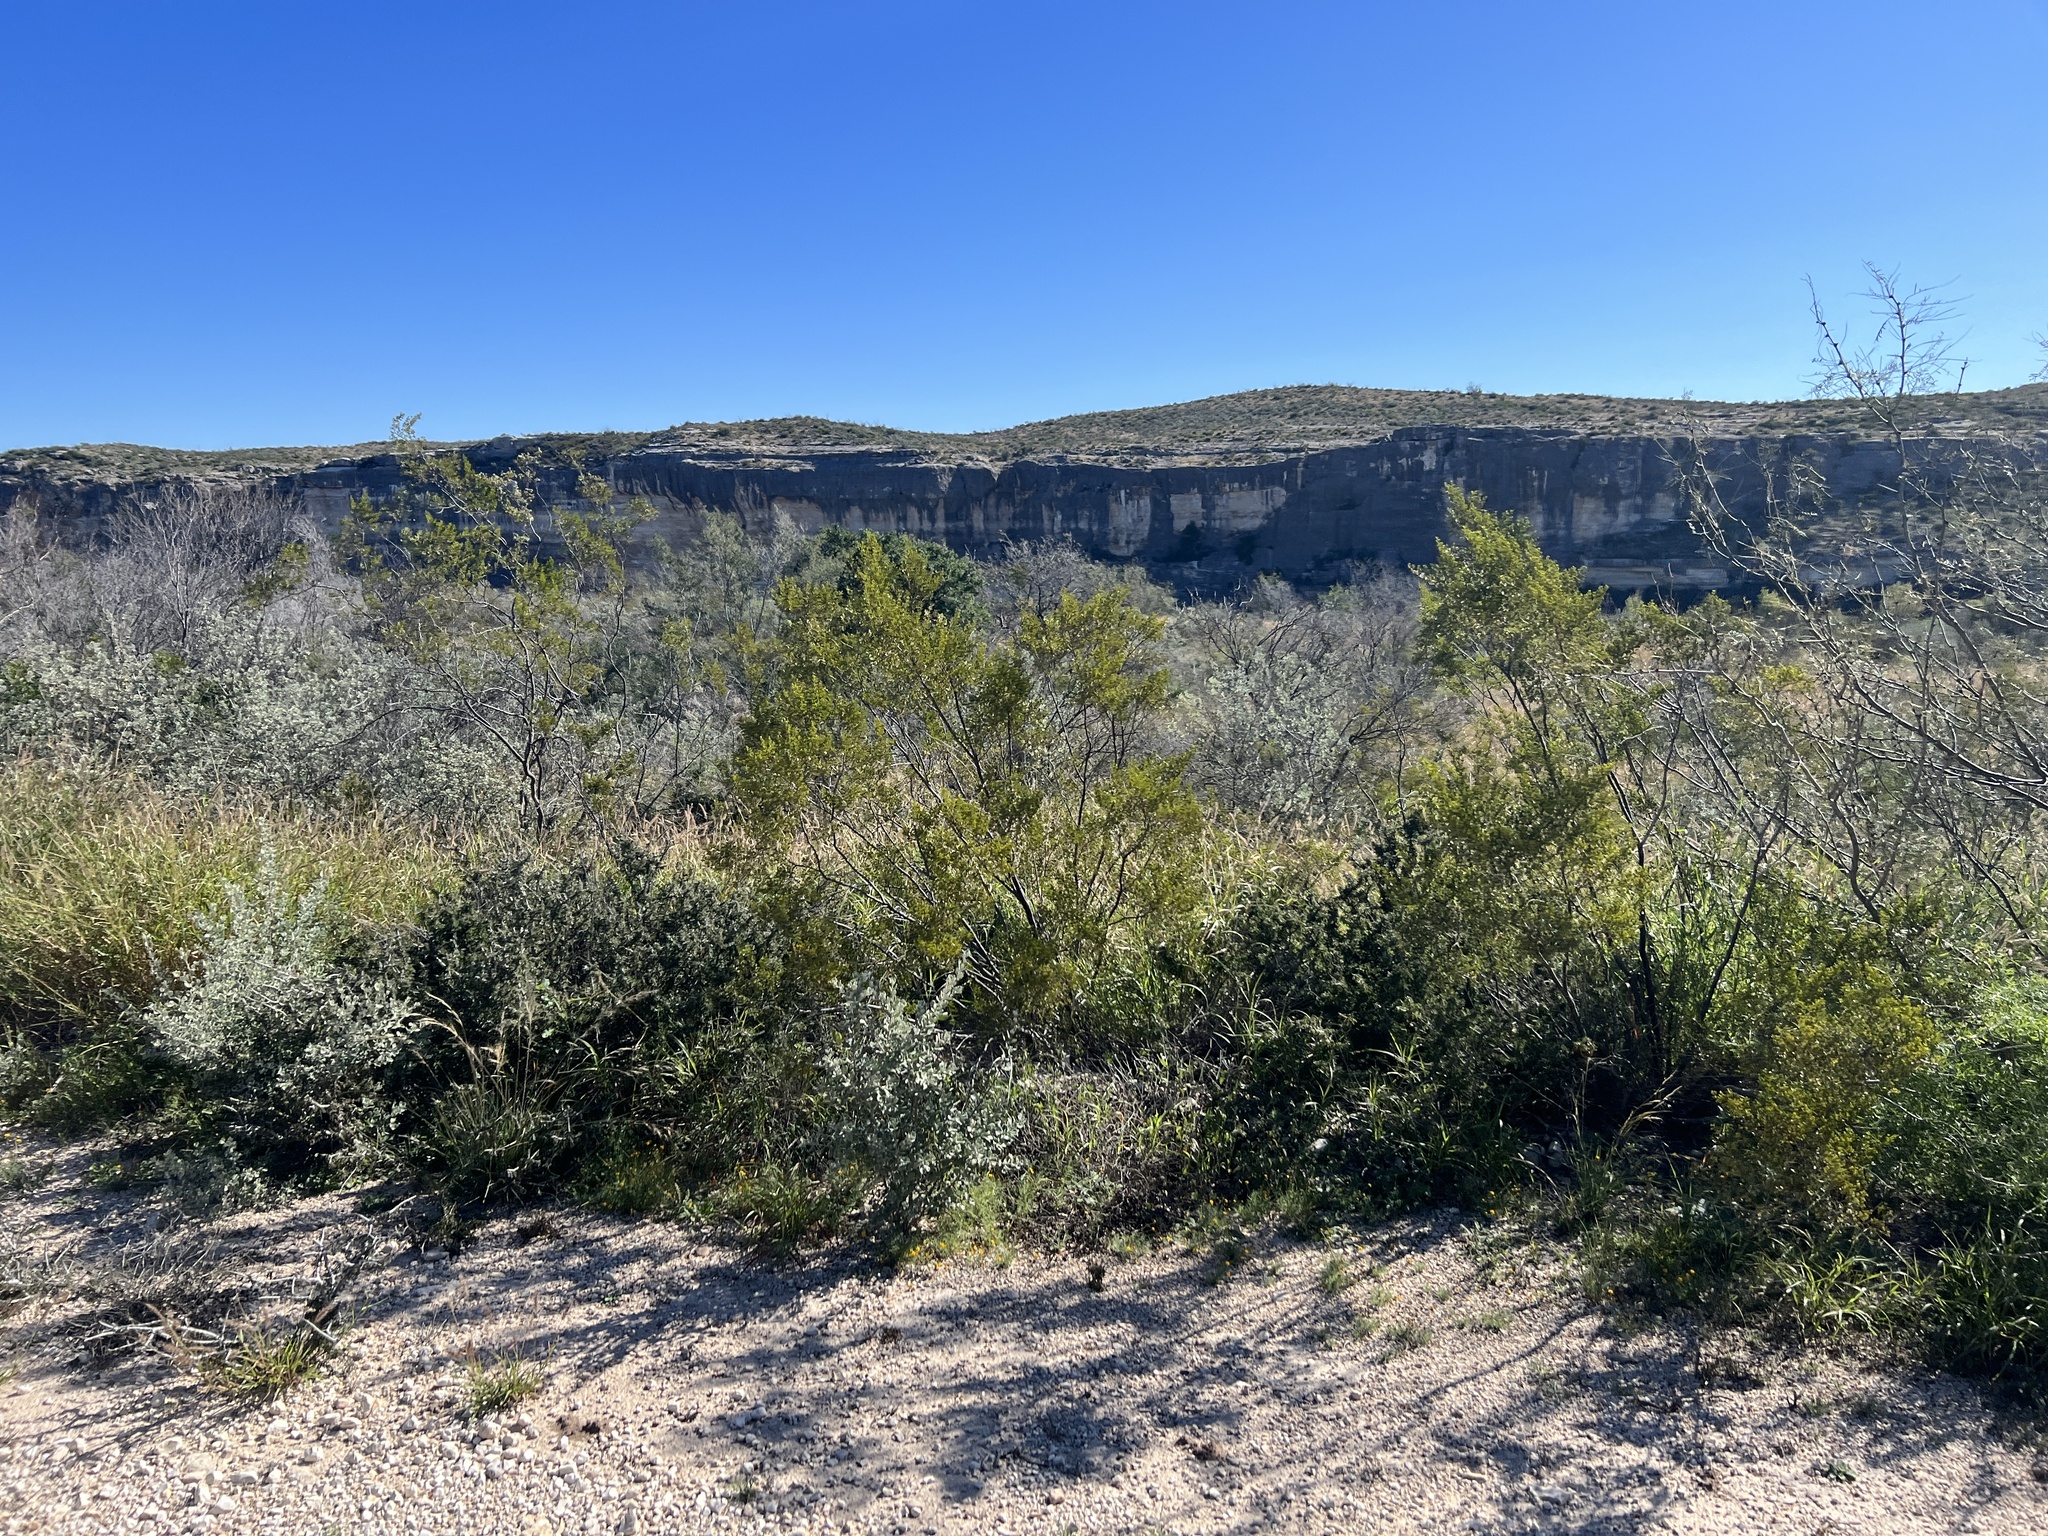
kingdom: Plantae
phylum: Tracheophyta
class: Magnoliopsida
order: Zygophyllales
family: Zygophyllaceae
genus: Larrea
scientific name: Larrea tridentata
